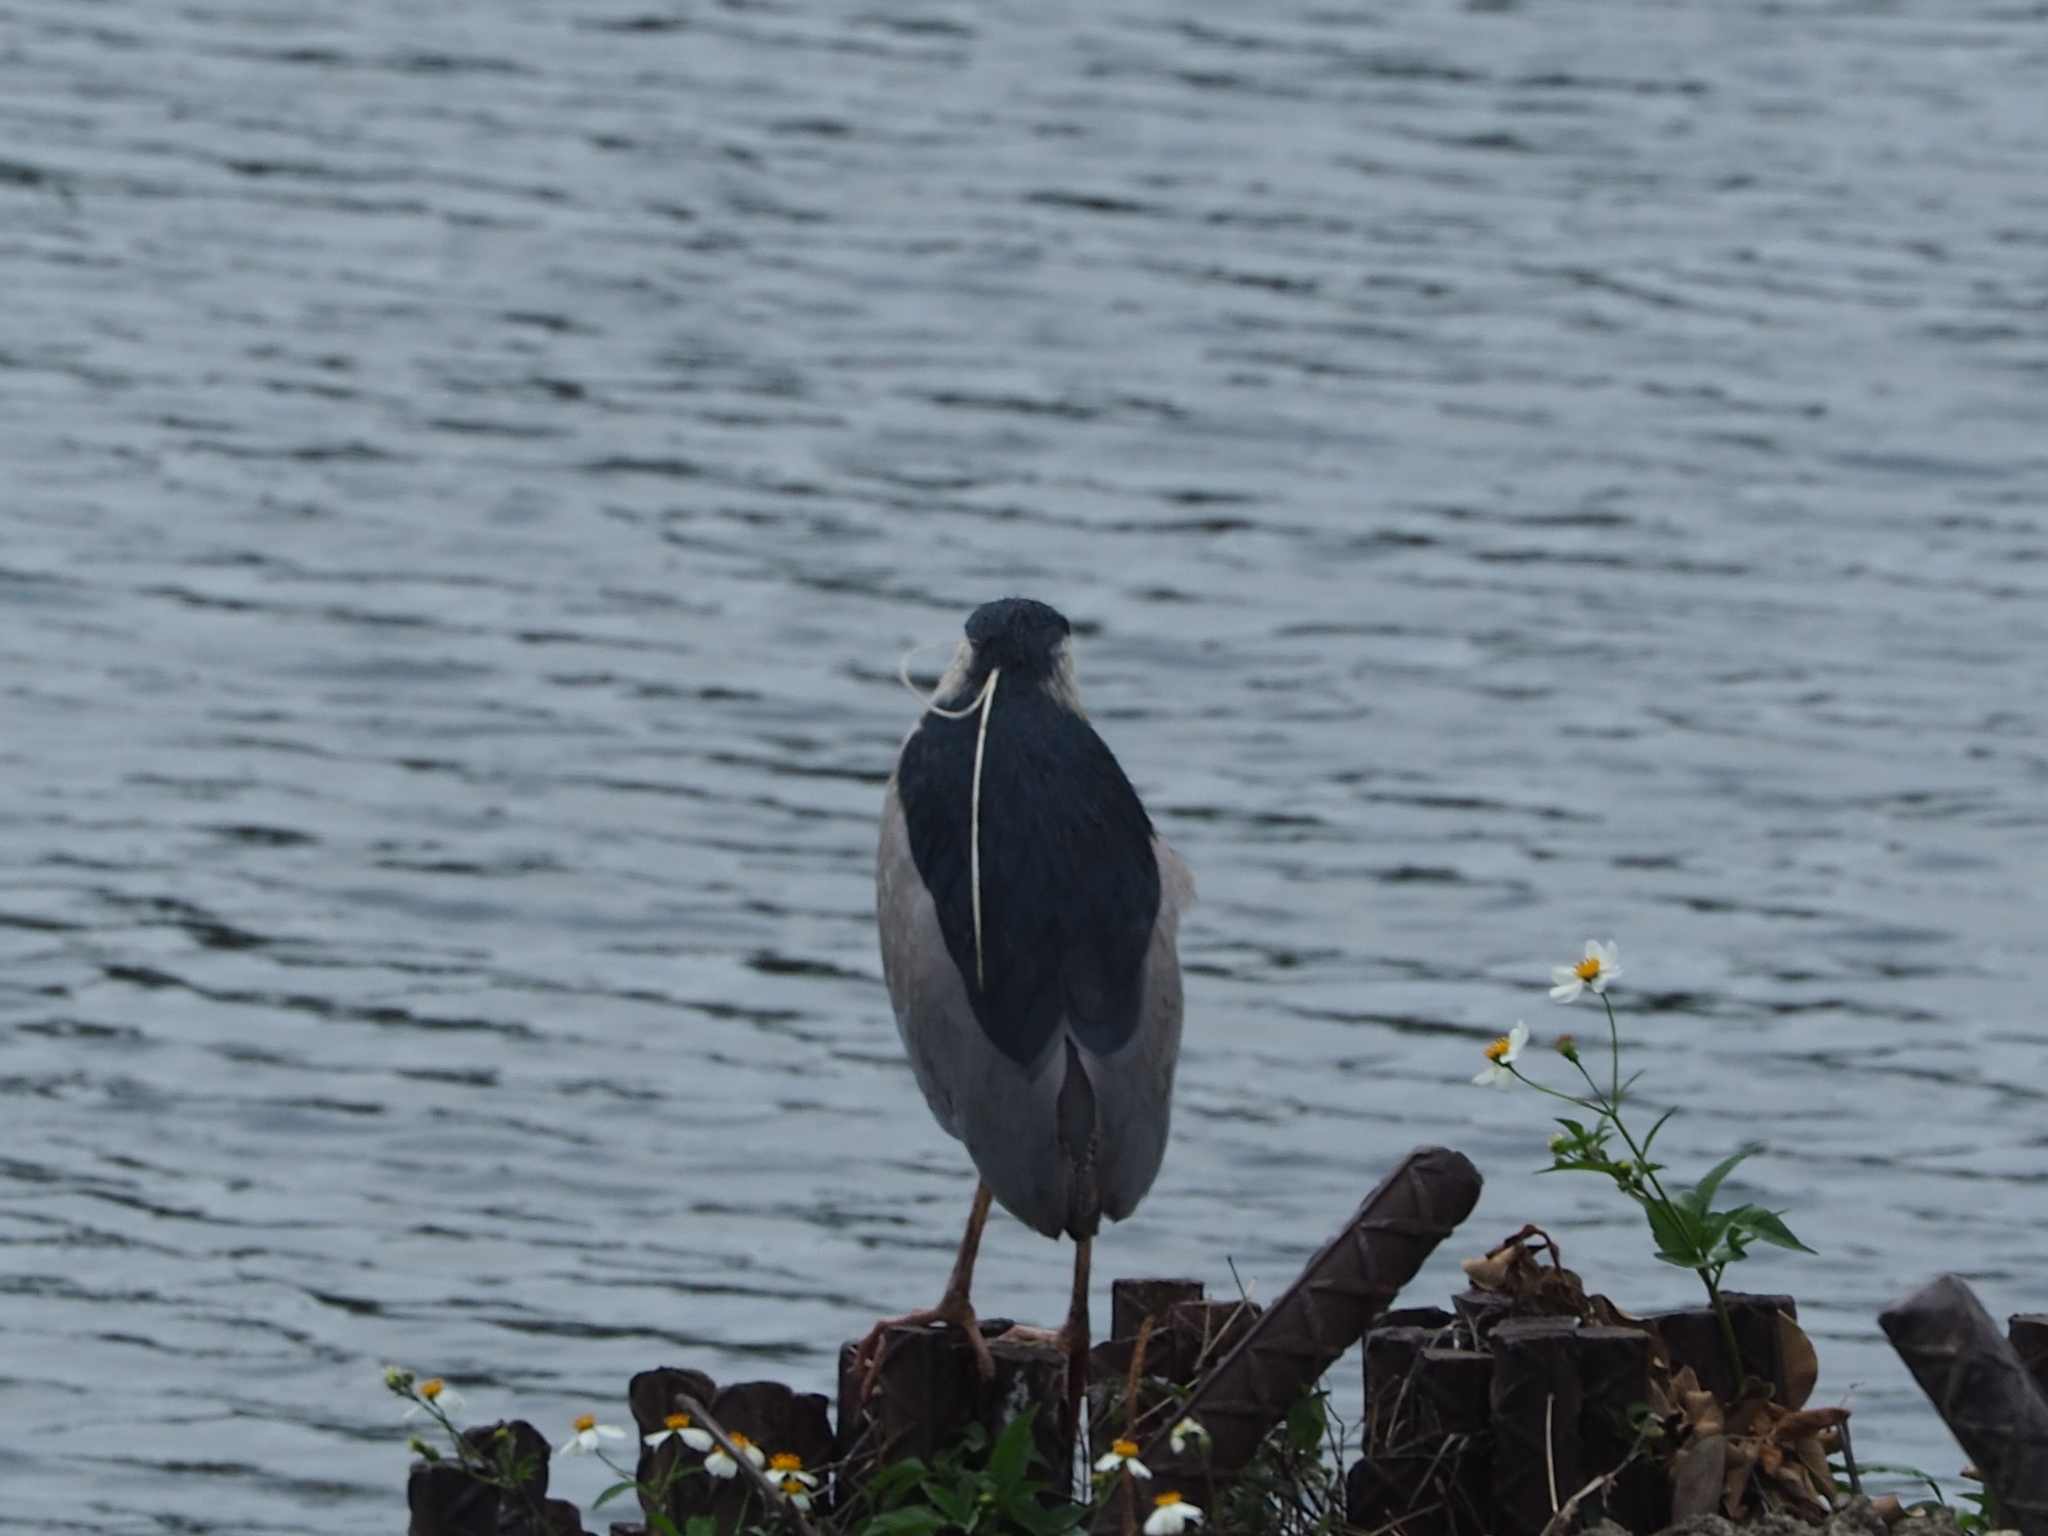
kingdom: Animalia
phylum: Chordata
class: Aves
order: Pelecaniformes
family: Ardeidae
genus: Nycticorax
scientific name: Nycticorax nycticorax
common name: Black-crowned night heron
